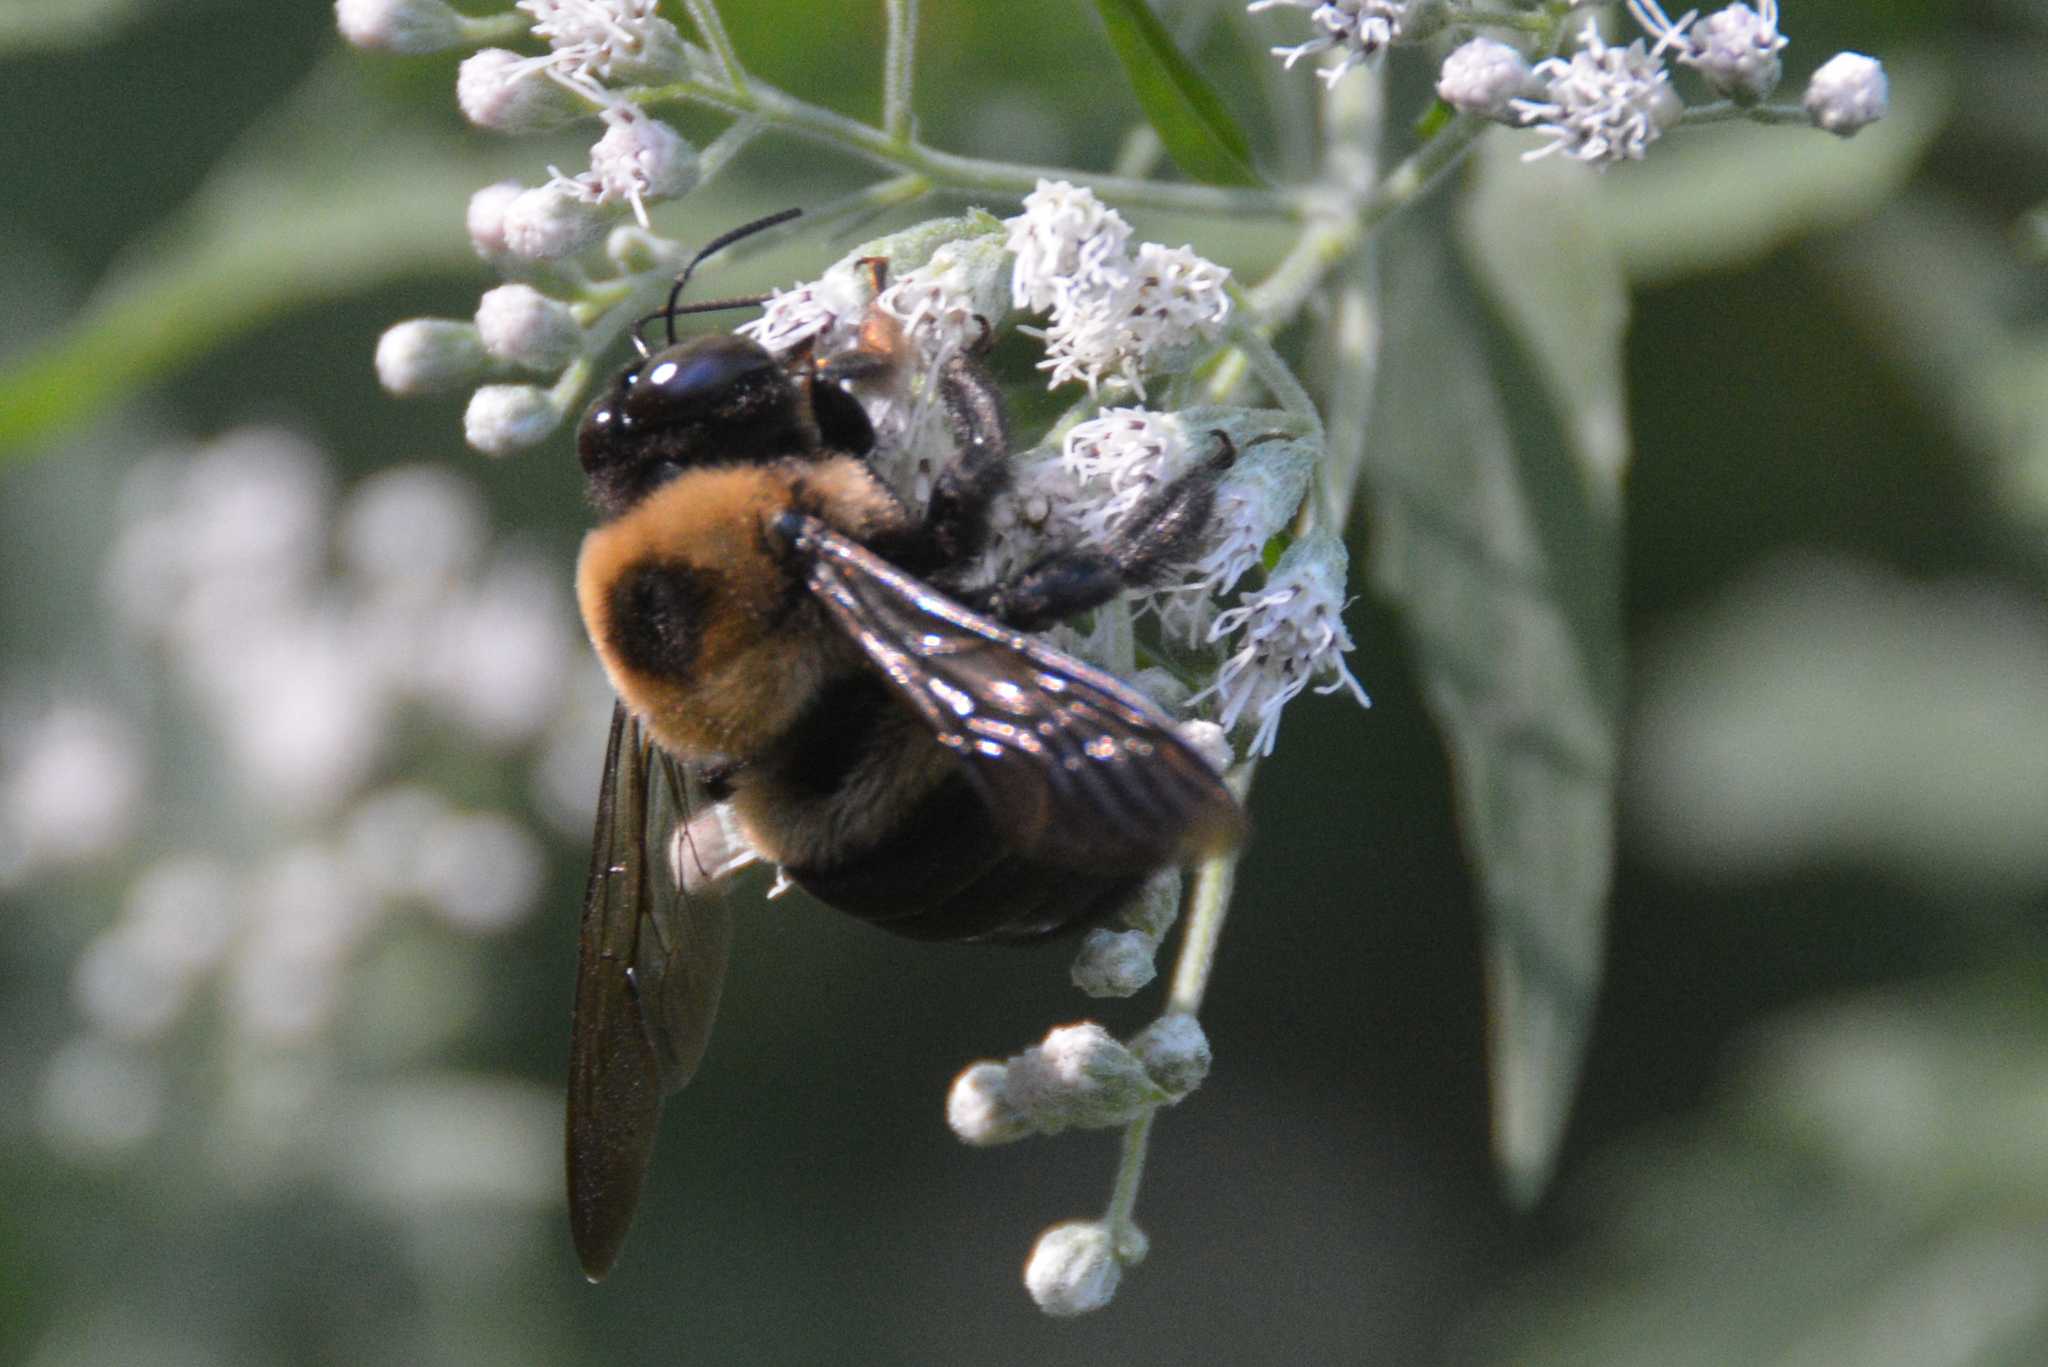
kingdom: Animalia
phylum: Arthropoda
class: Insecta
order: Hymenoptera
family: Apidae
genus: Xylocopa
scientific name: Xylocopa virginica
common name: Carpenter bee
